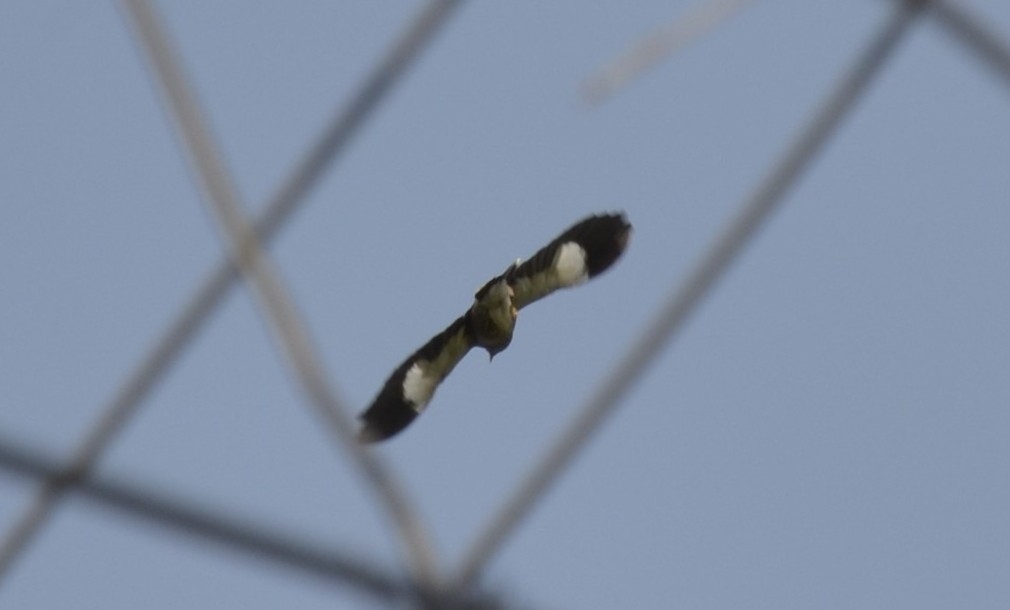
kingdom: Animalia
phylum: Chordata
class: Aves
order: Passeriformes
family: Sturnidae
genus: Acridotheres
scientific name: Acridotheres tristis
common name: Common myna
